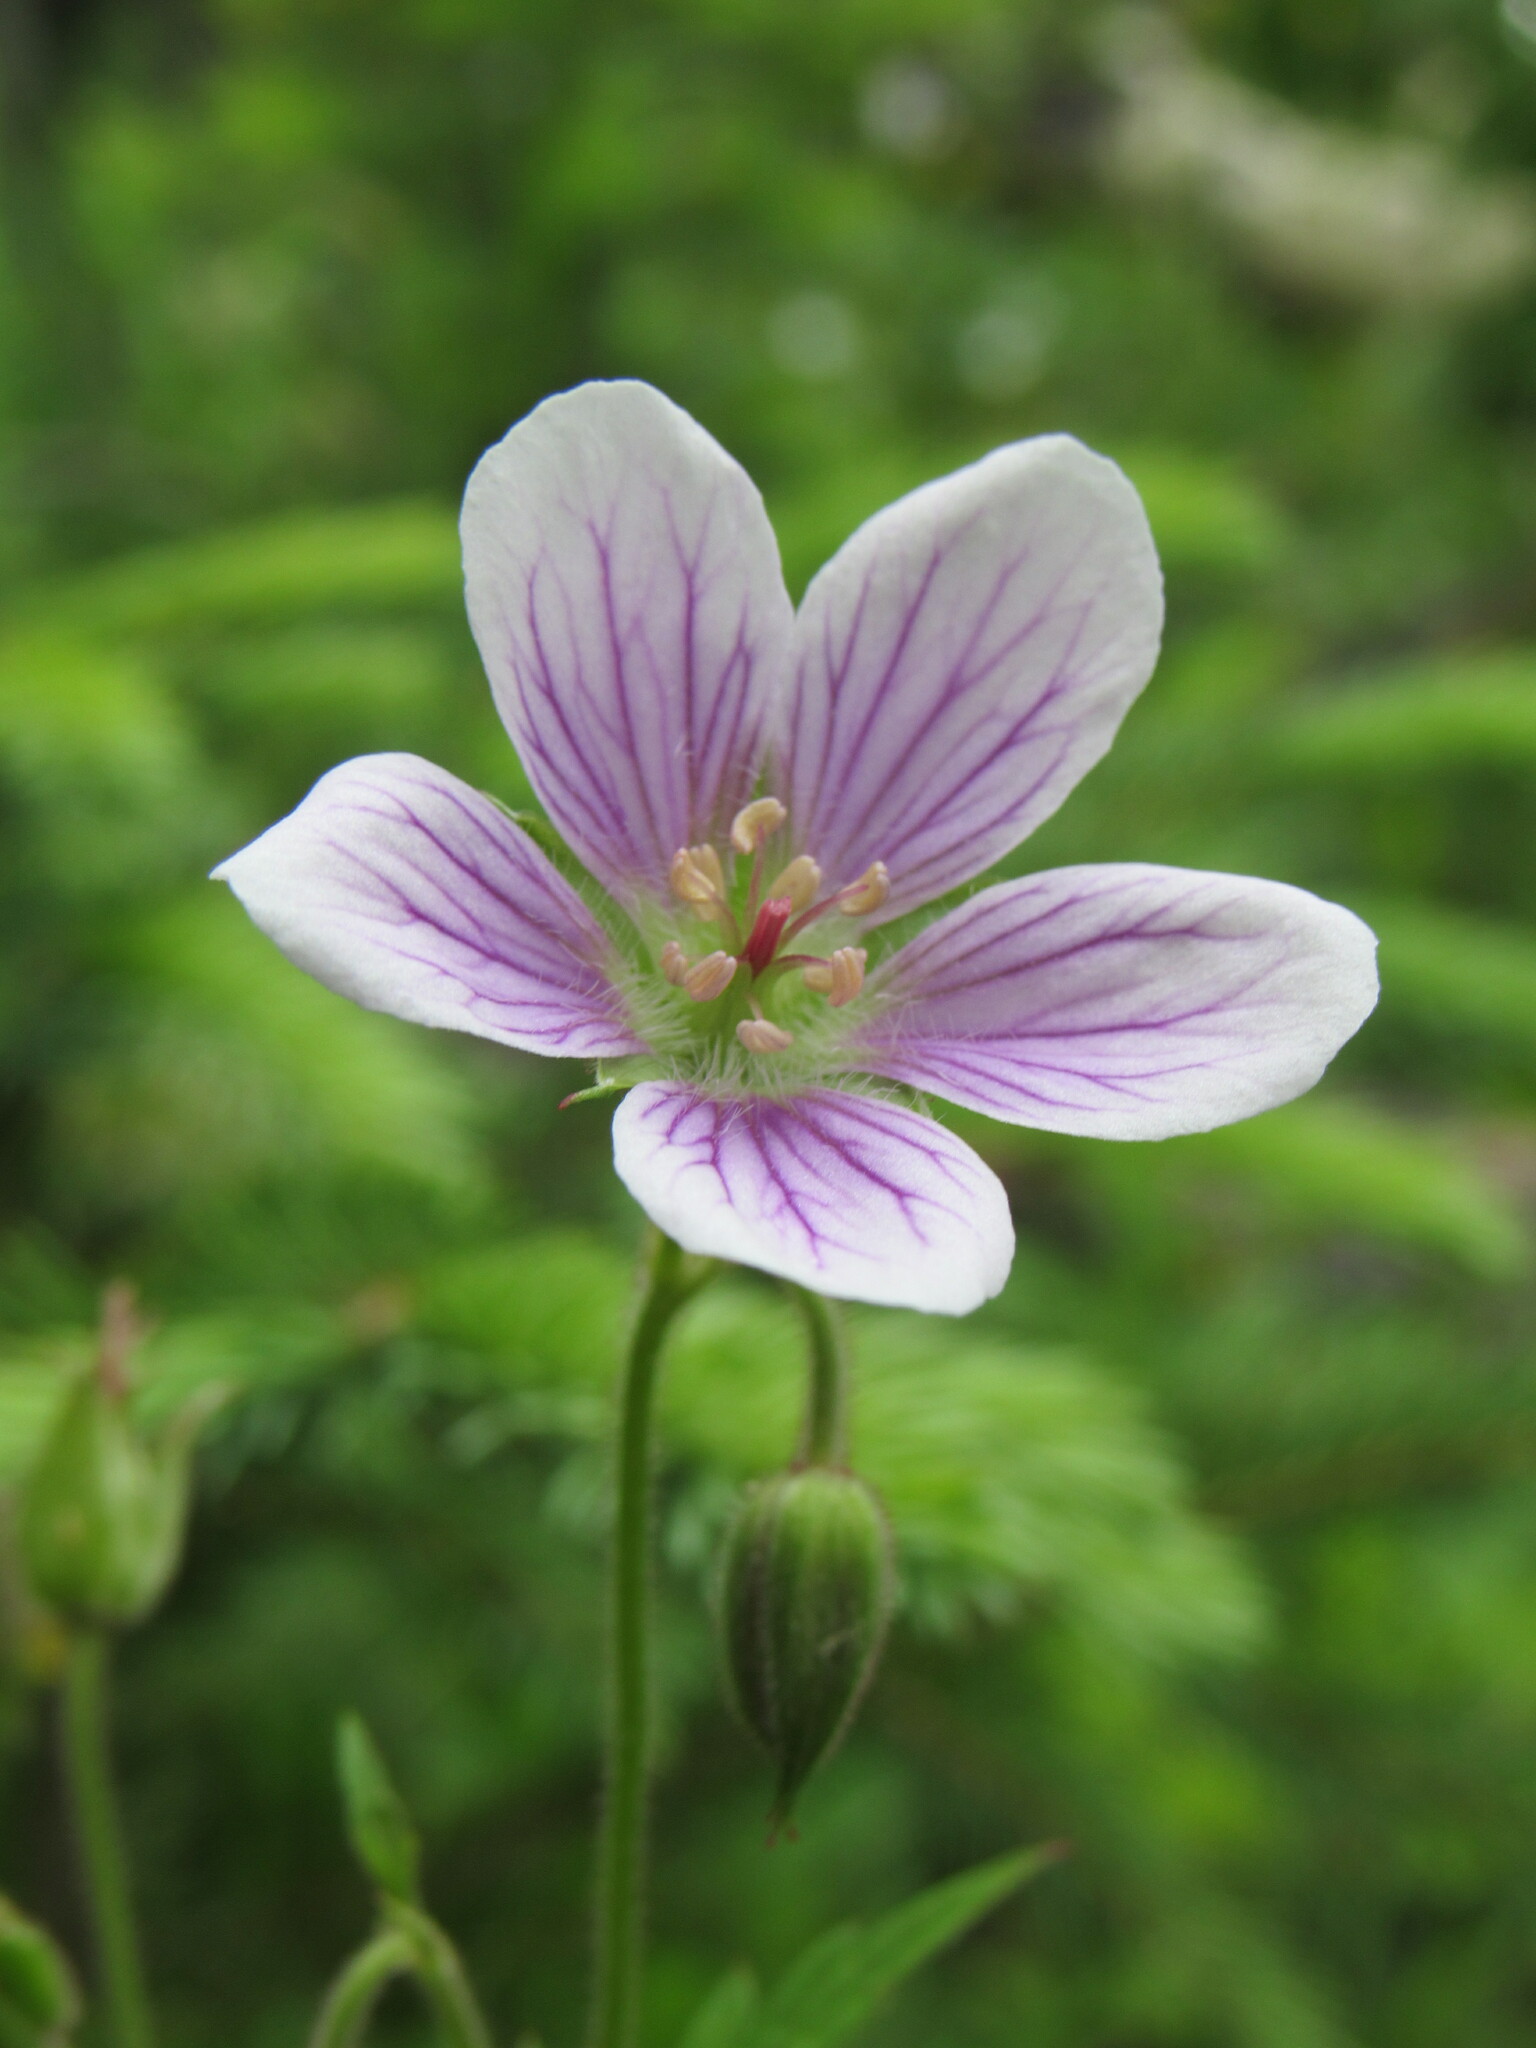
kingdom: Plantae
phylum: Tracheophyta
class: Magnoliopsida
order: Geraniales
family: Geraniaceae
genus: Geranium
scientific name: Geranium richardsonii
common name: Richardson's crane's-bill
